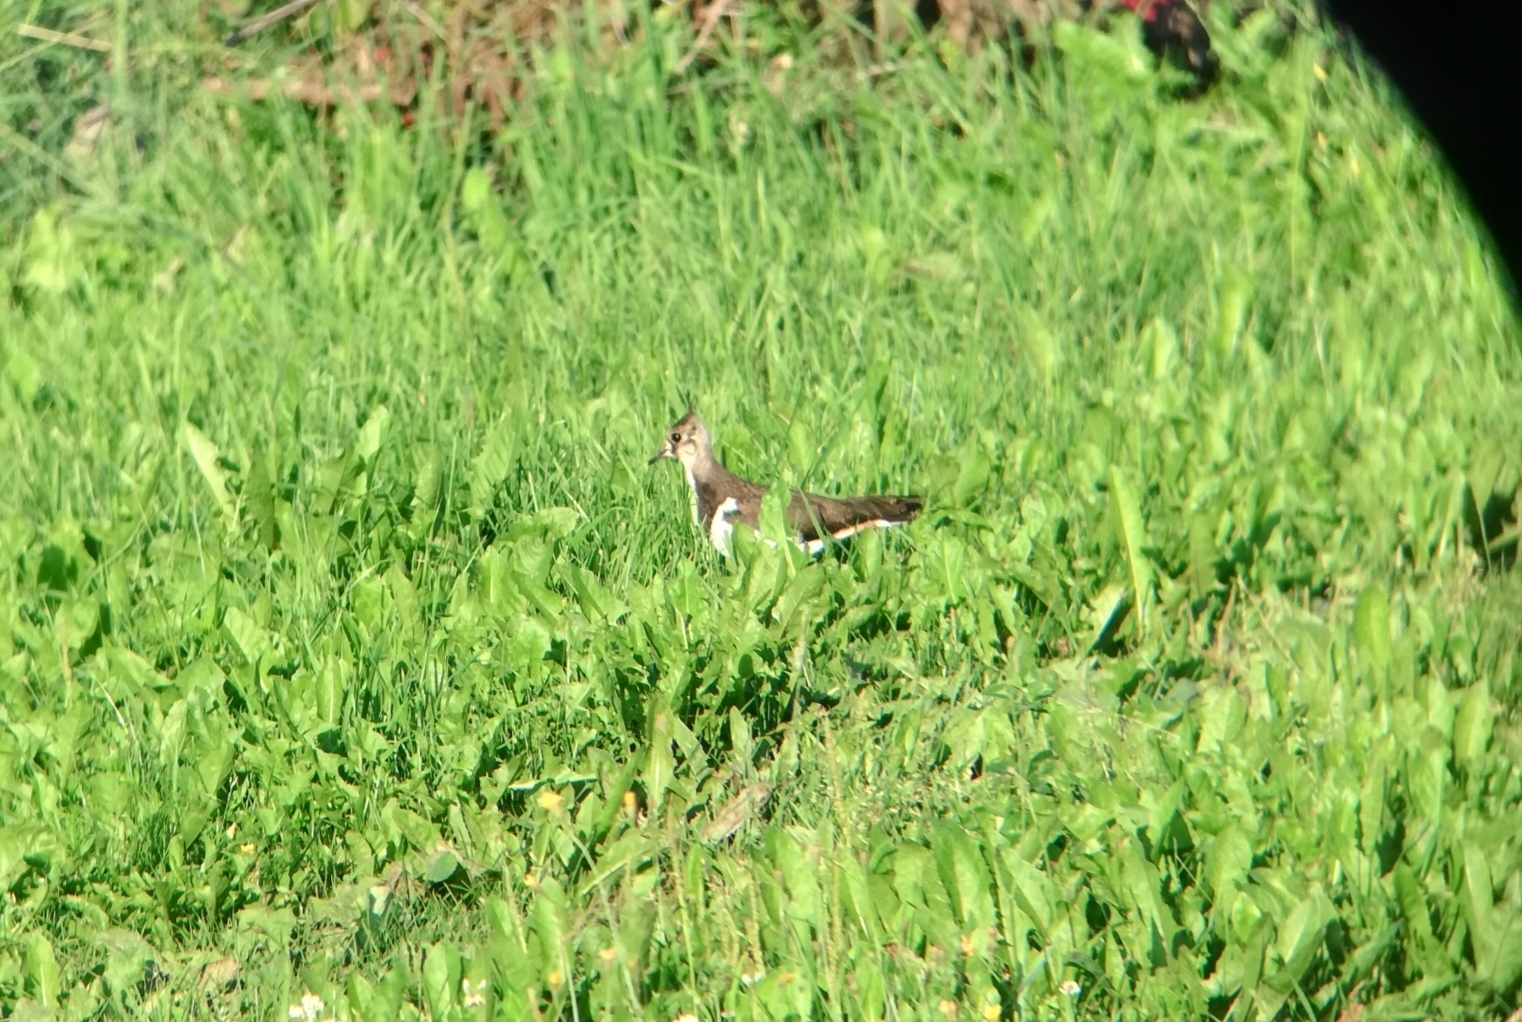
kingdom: Animalia
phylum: Chordata
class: Aves
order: Charadriiformes
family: Charadriidae
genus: Vanellus
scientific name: Vanellus vanellus
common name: Northern lapwing
